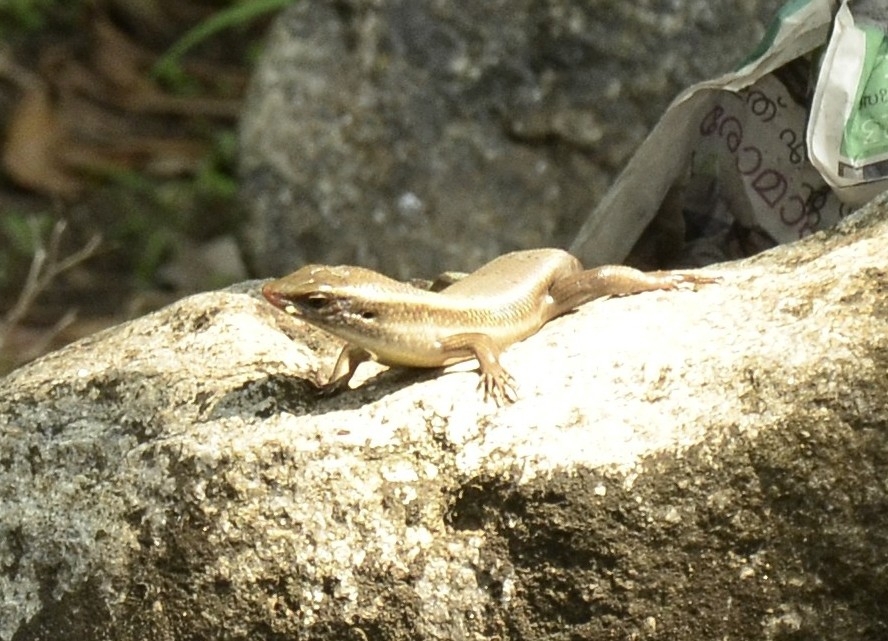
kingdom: Animalia
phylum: Chordata
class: Squamata
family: Scincidae
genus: Eutropis
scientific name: Eutropis carinata
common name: Keeled indian mabuya
